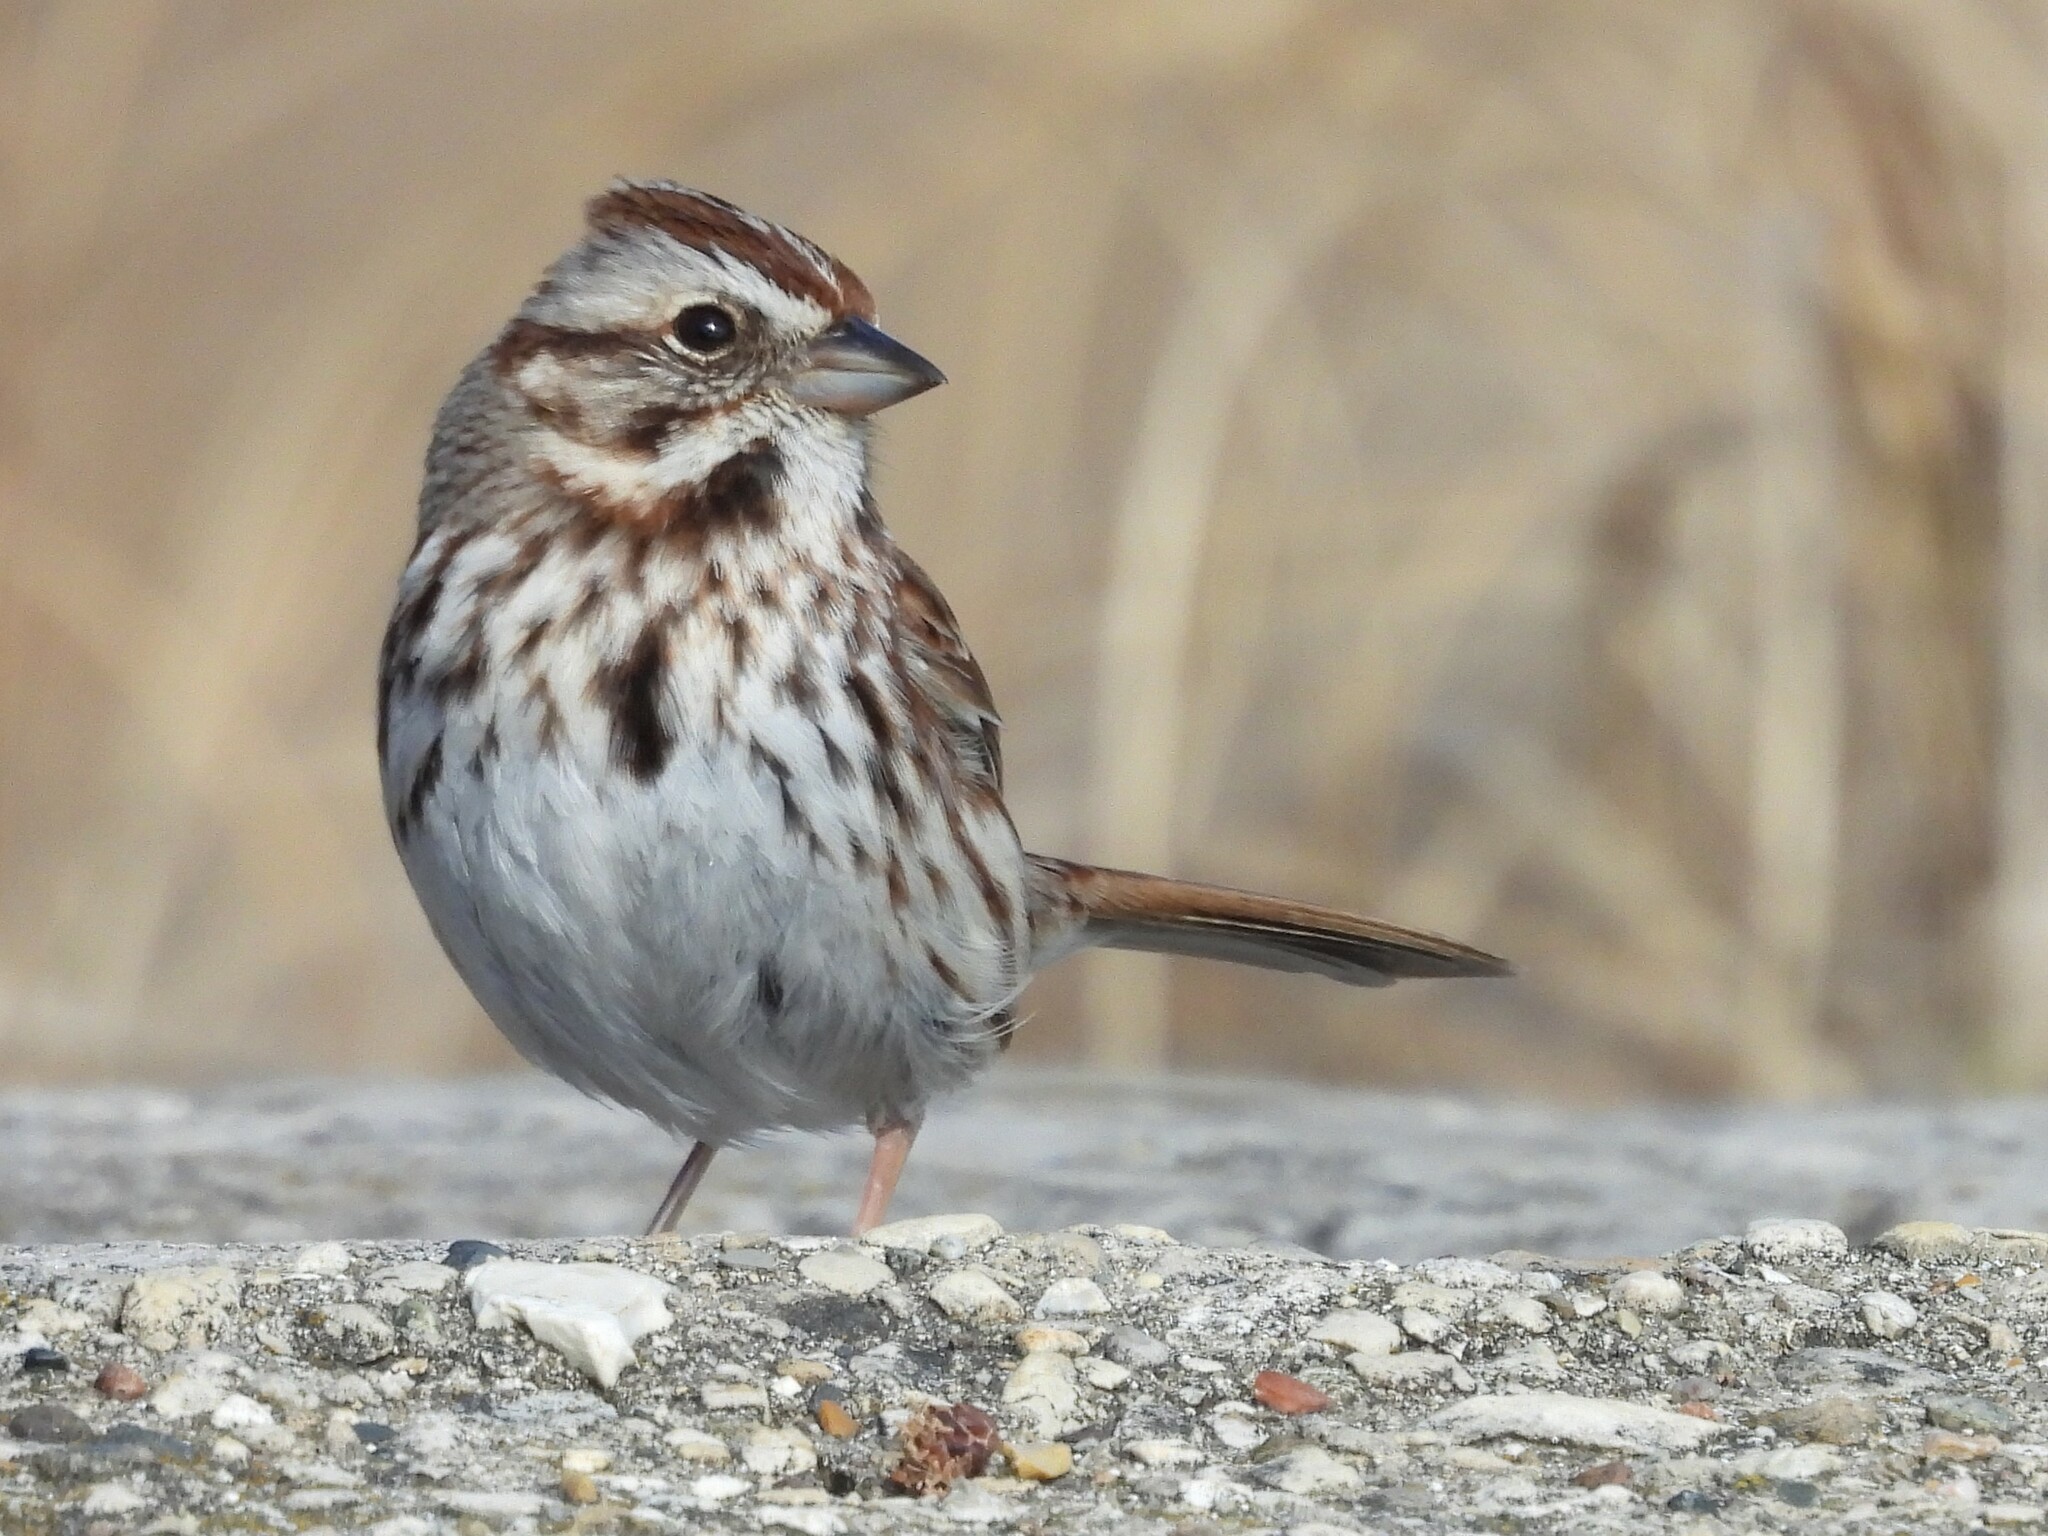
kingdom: Animalia
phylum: Chordata
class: Aves
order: Passeriformes
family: Passerellidae
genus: Melospiza
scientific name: Melospiza melodia
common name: Song sparrow
